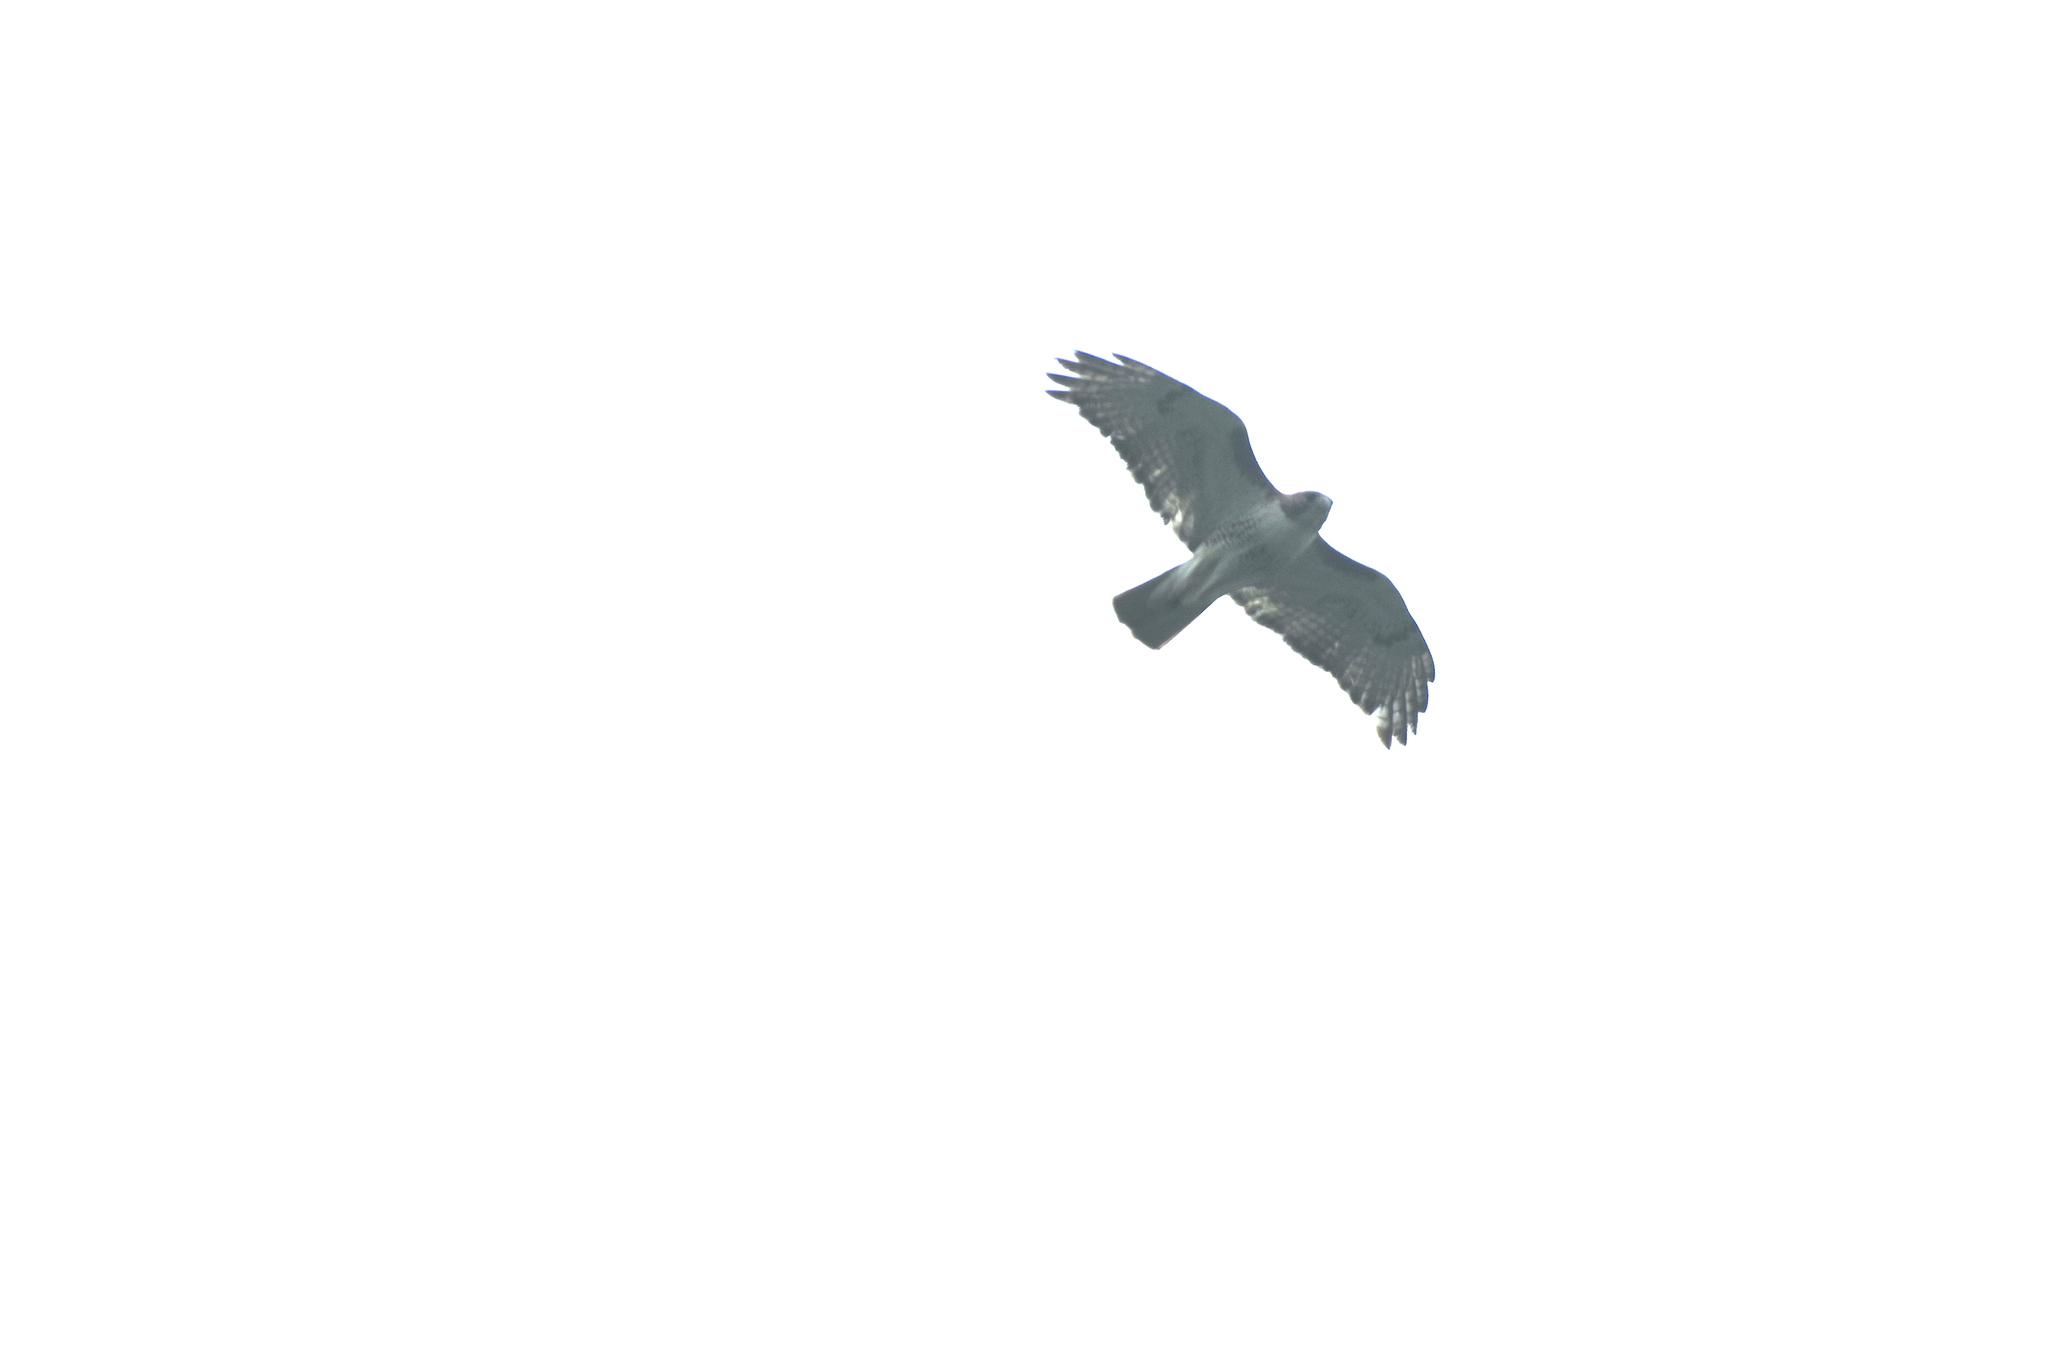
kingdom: Animalia
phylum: Chordata
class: Aves
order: Accipitriformes
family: Accipitridae
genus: Buteo
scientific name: Buteo jamaicensis
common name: Red-tailed hawk
